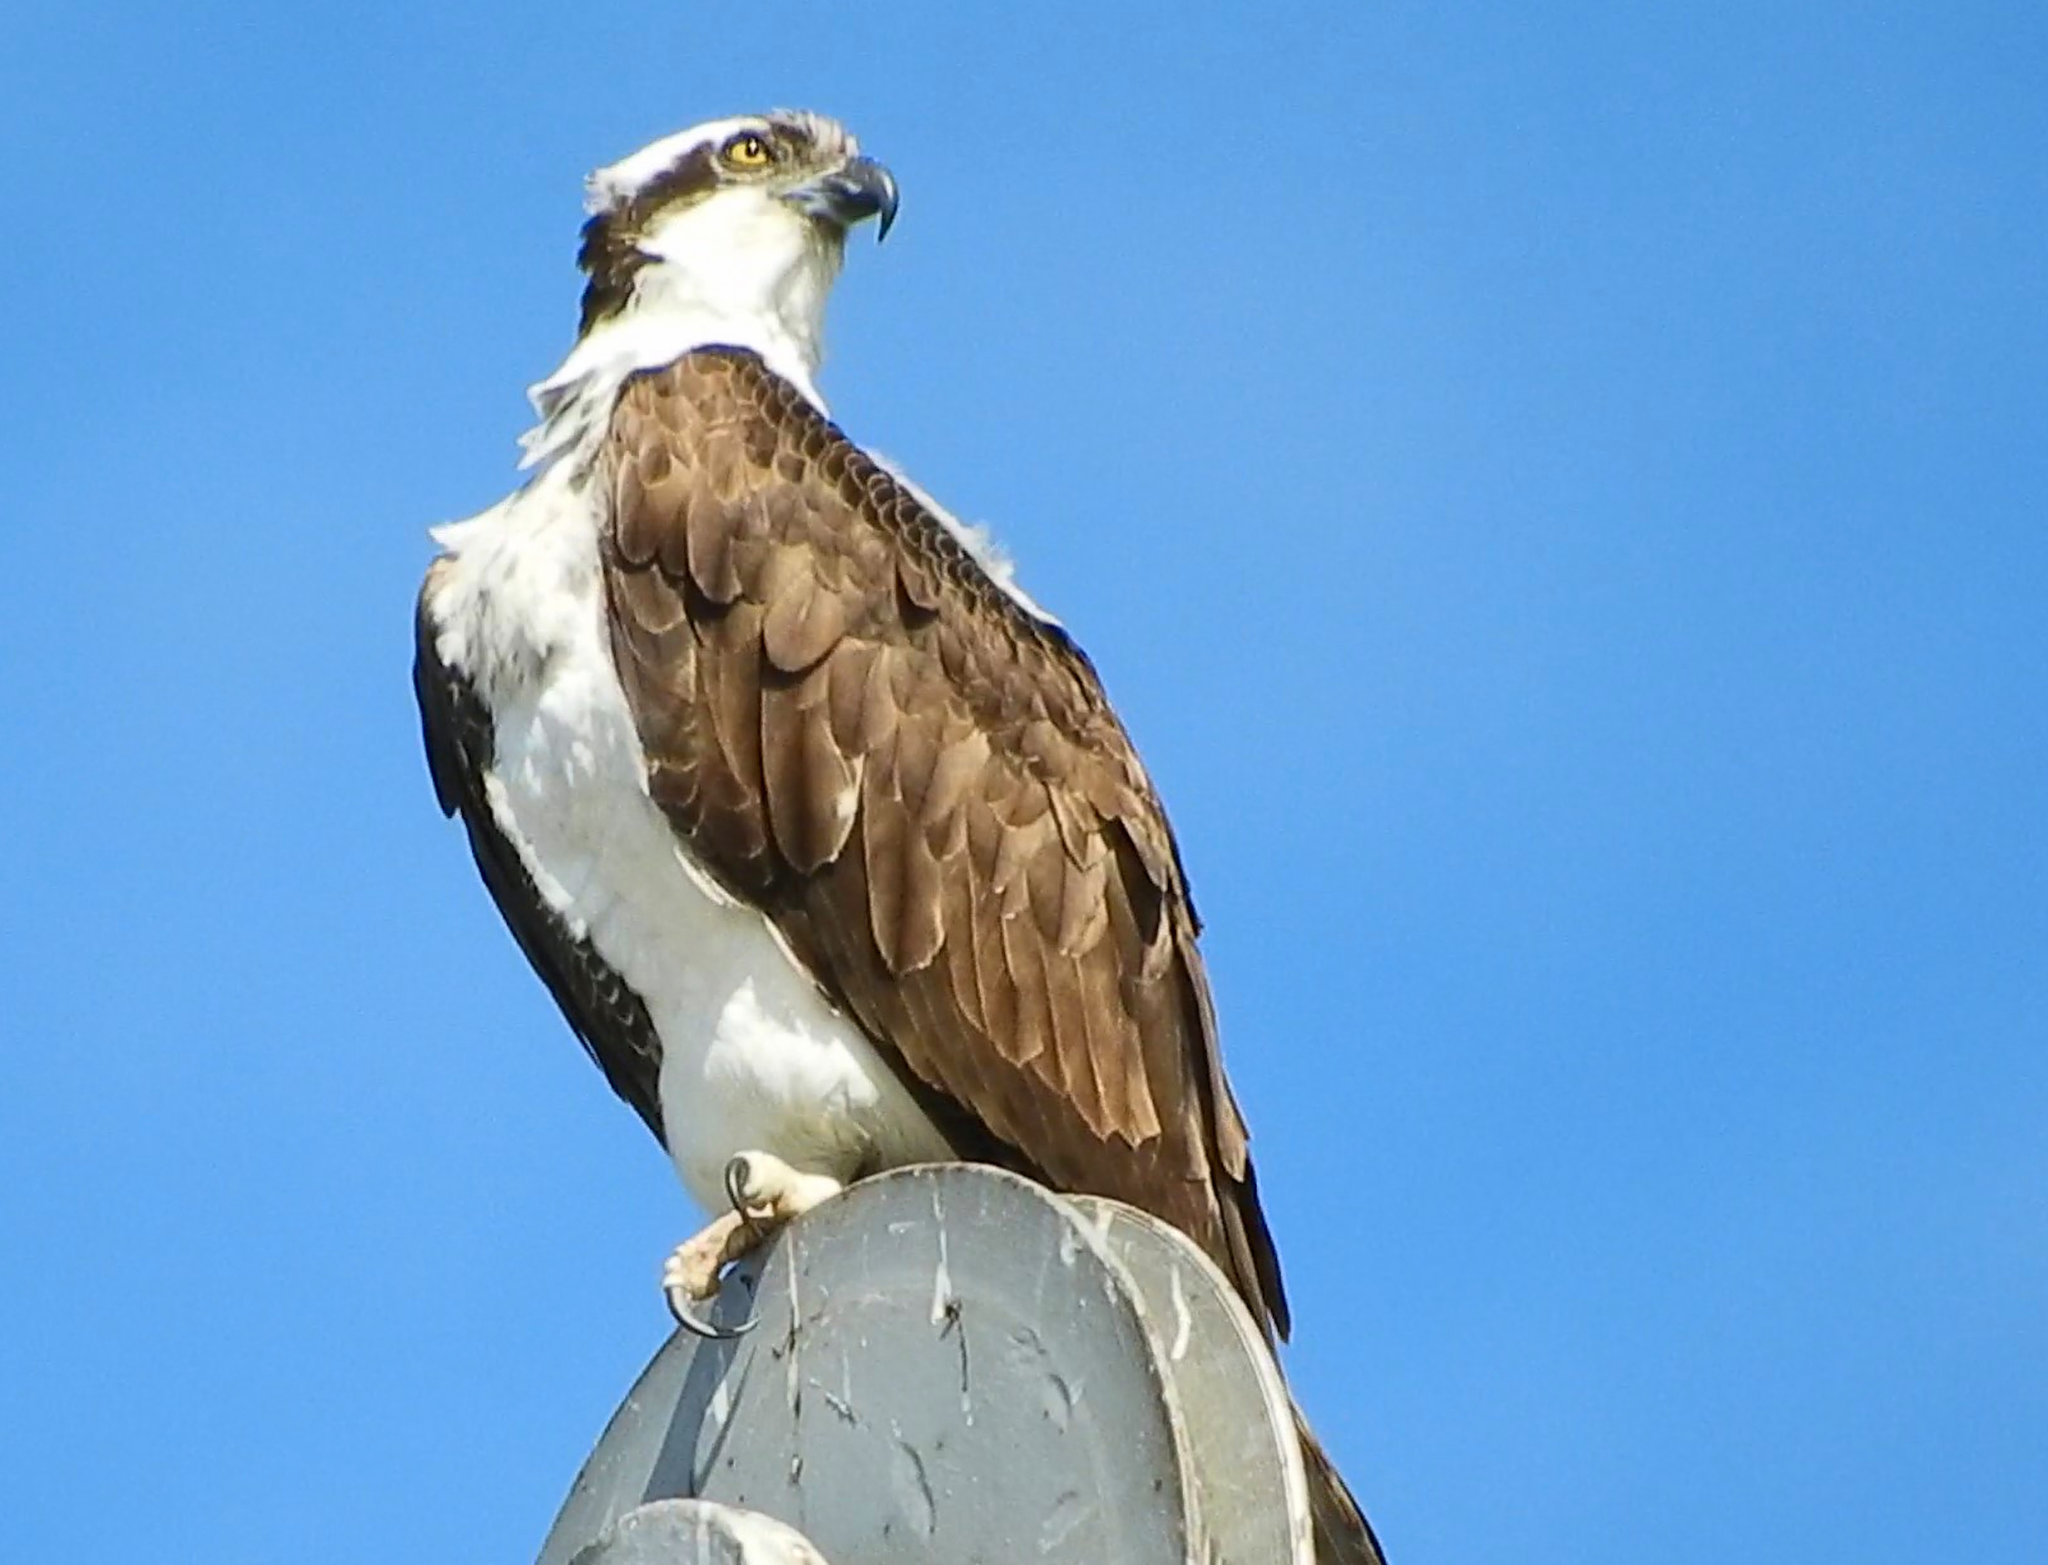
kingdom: Animalia
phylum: Chordata
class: Aves
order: Accipitriformes
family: Pandionidae
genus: Pandion
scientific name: Pandion haliaetus
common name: Osprey
